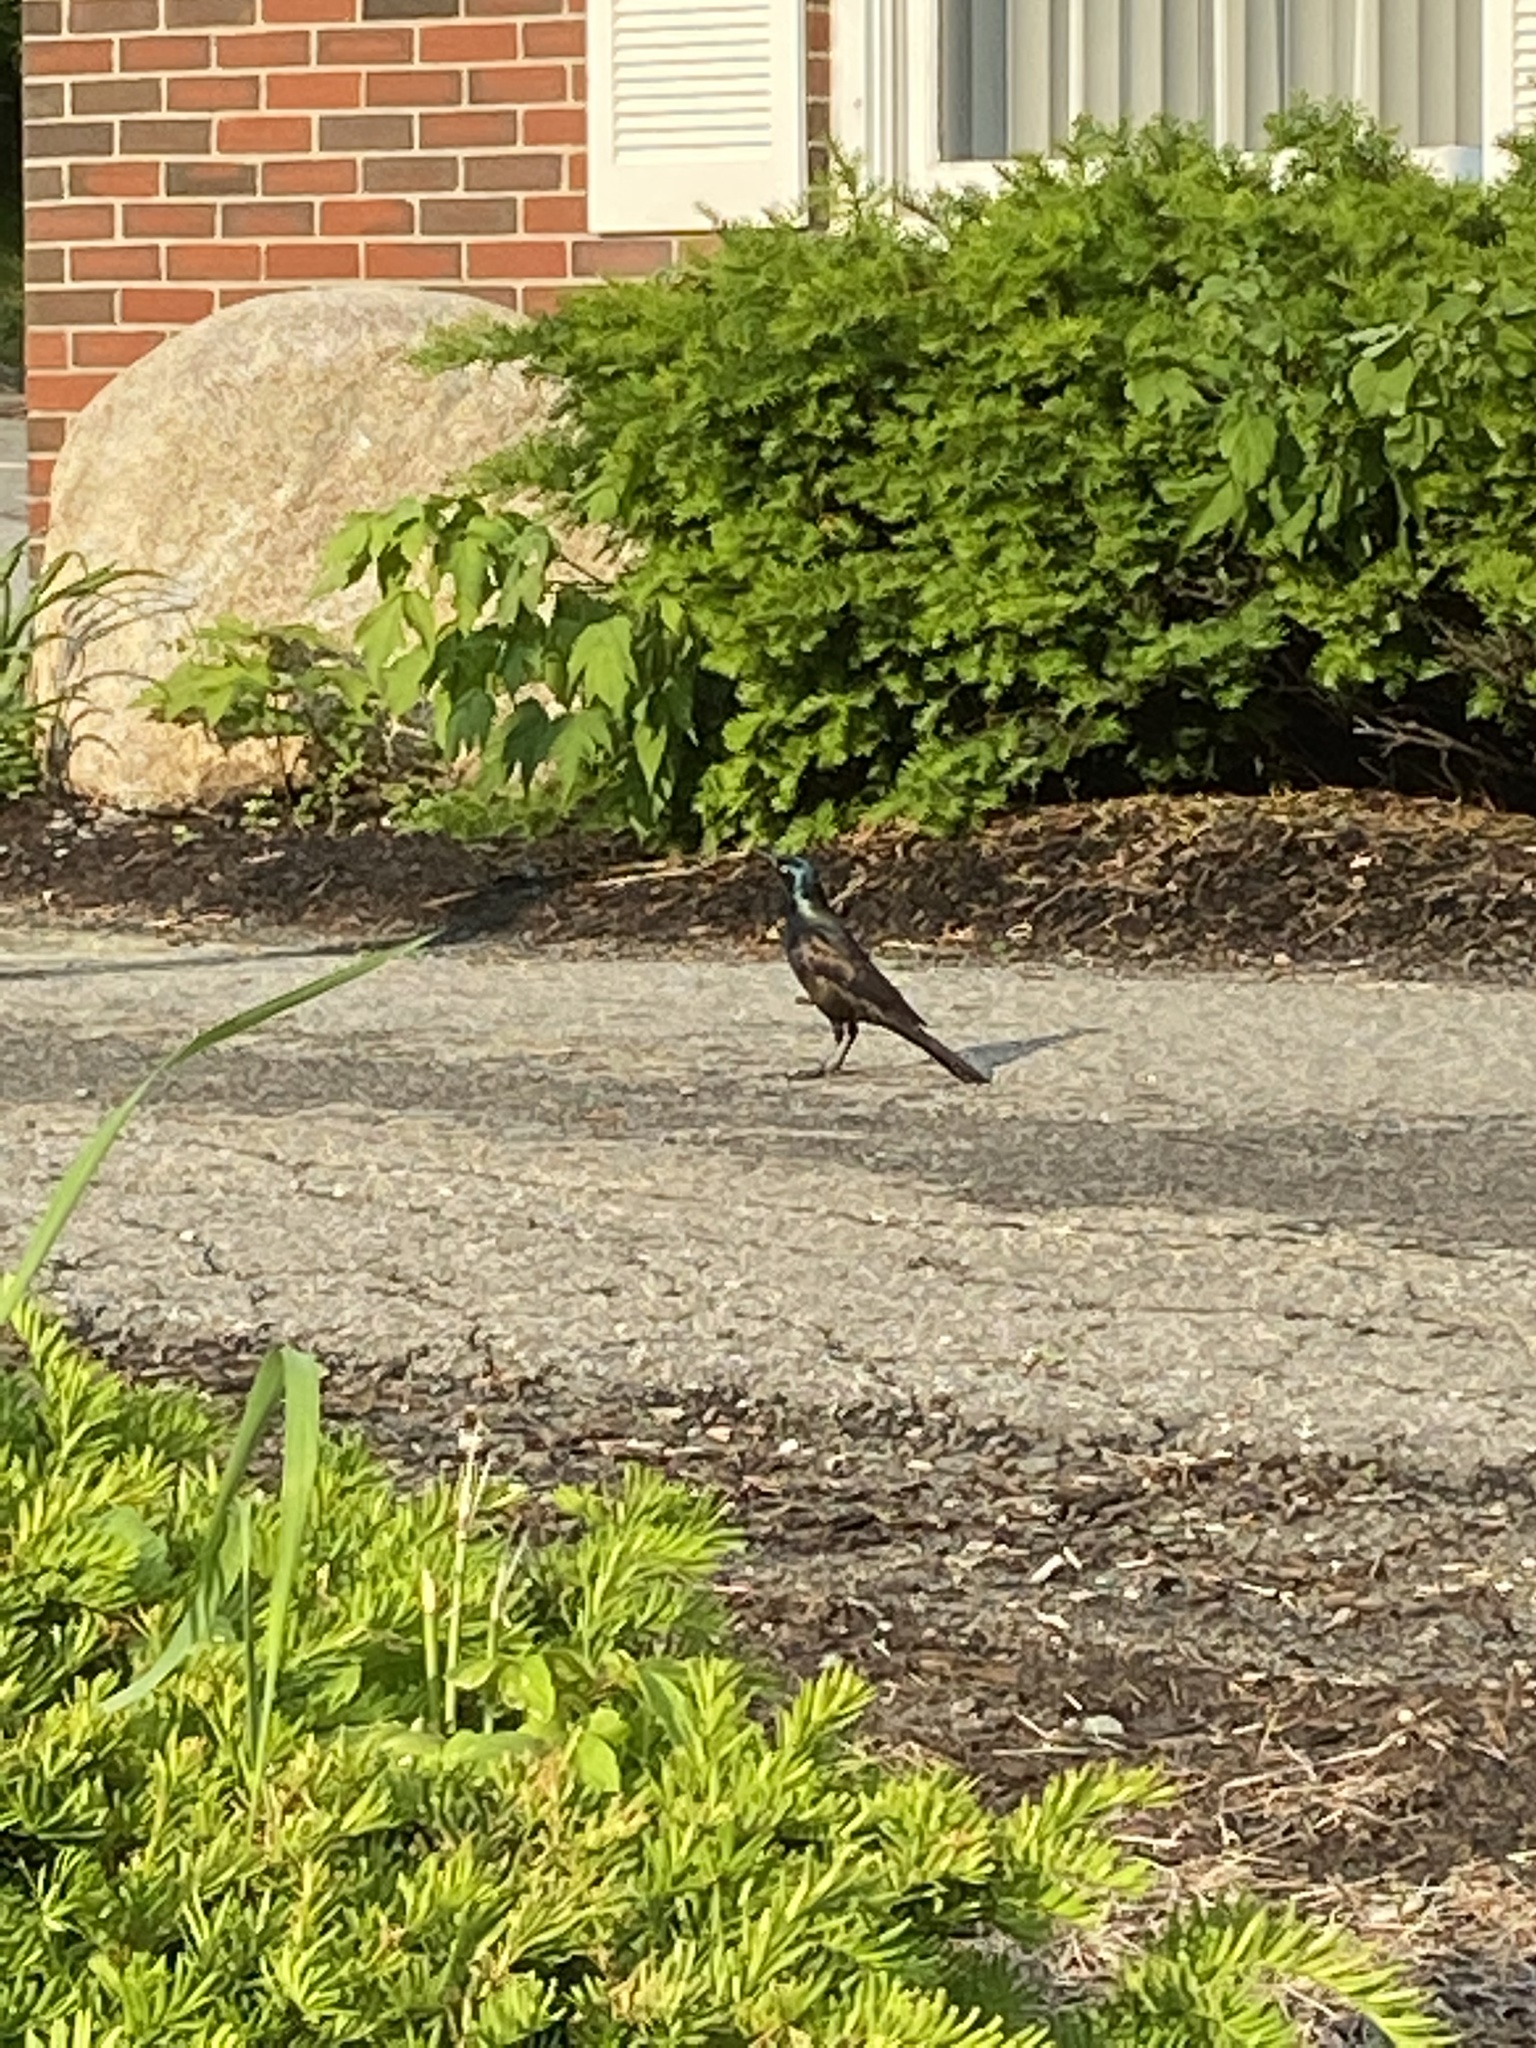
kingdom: Animalia
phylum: Chordata
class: Aves
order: Passeriformes
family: Icteridae
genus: Quiscalus
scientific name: Quiscalus quiscula
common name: Common grackle
